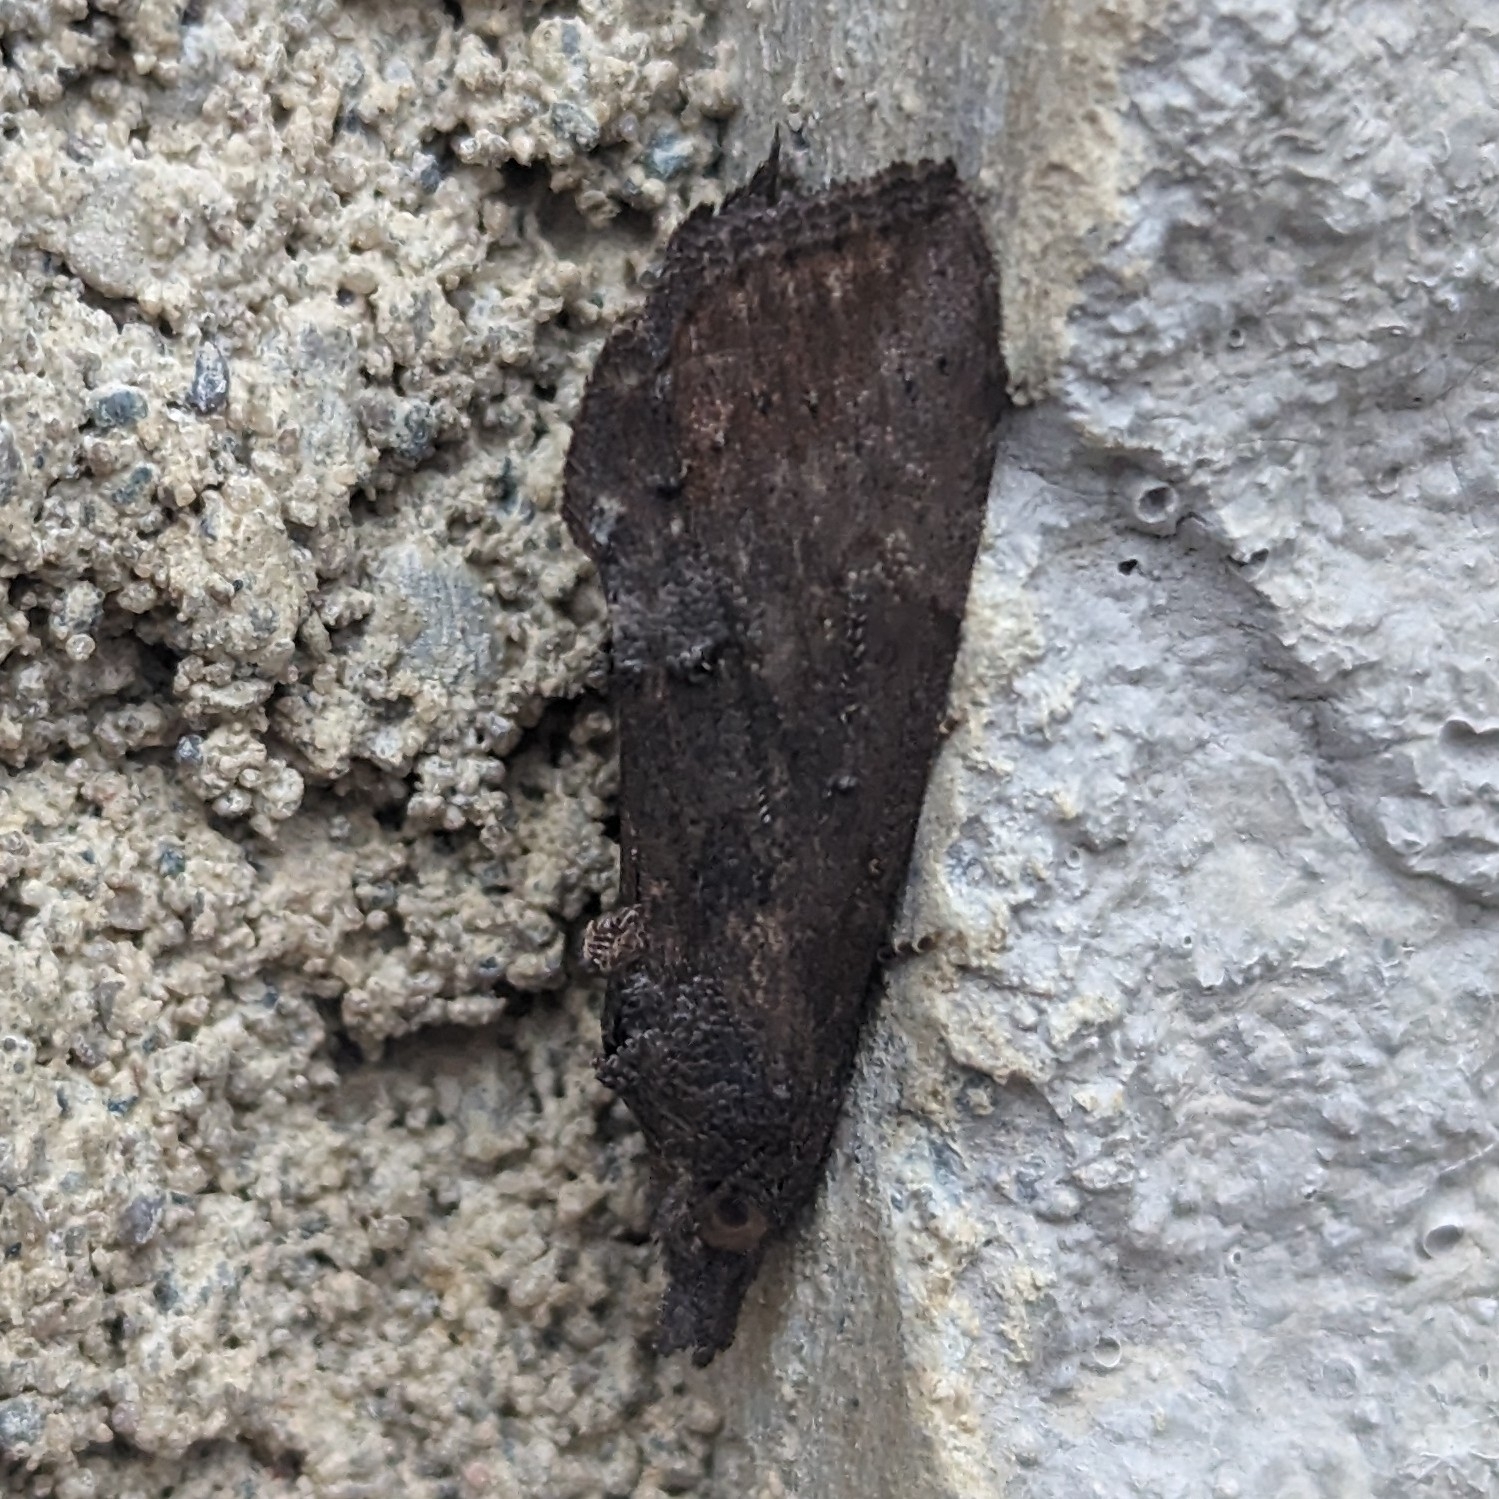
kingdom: Animalia
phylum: Arthropoda
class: Insecta
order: Lepidoptera
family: Erebidae
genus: Hypena
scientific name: Hypena scabra
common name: Green cloverworm
